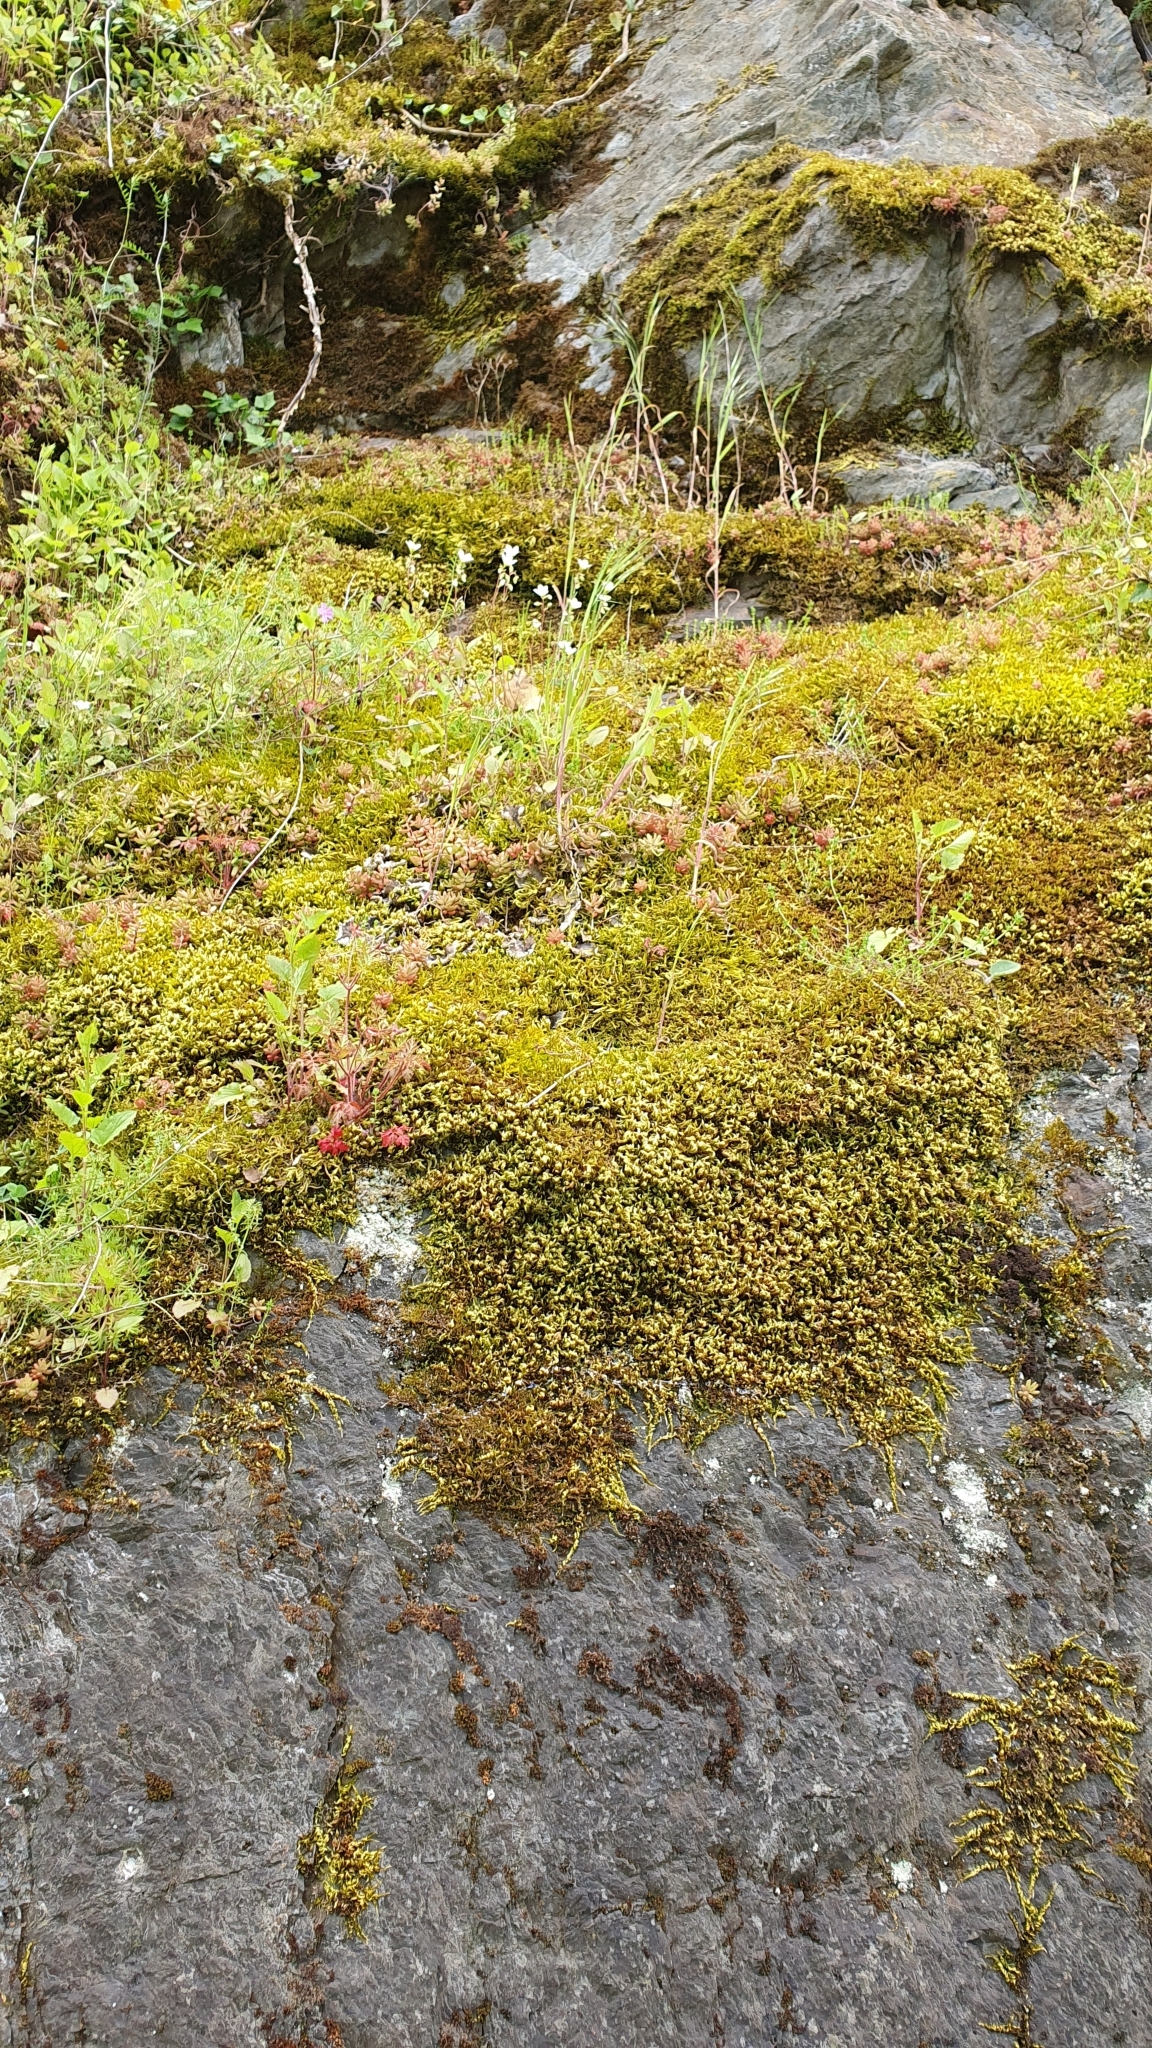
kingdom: Plantae
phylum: Tracheophyta
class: Magnoliopsida
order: Saxifragales
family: Saxifragaceae
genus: Saxifraga
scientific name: Saxifraga rosacea
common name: Irish saxifrage
